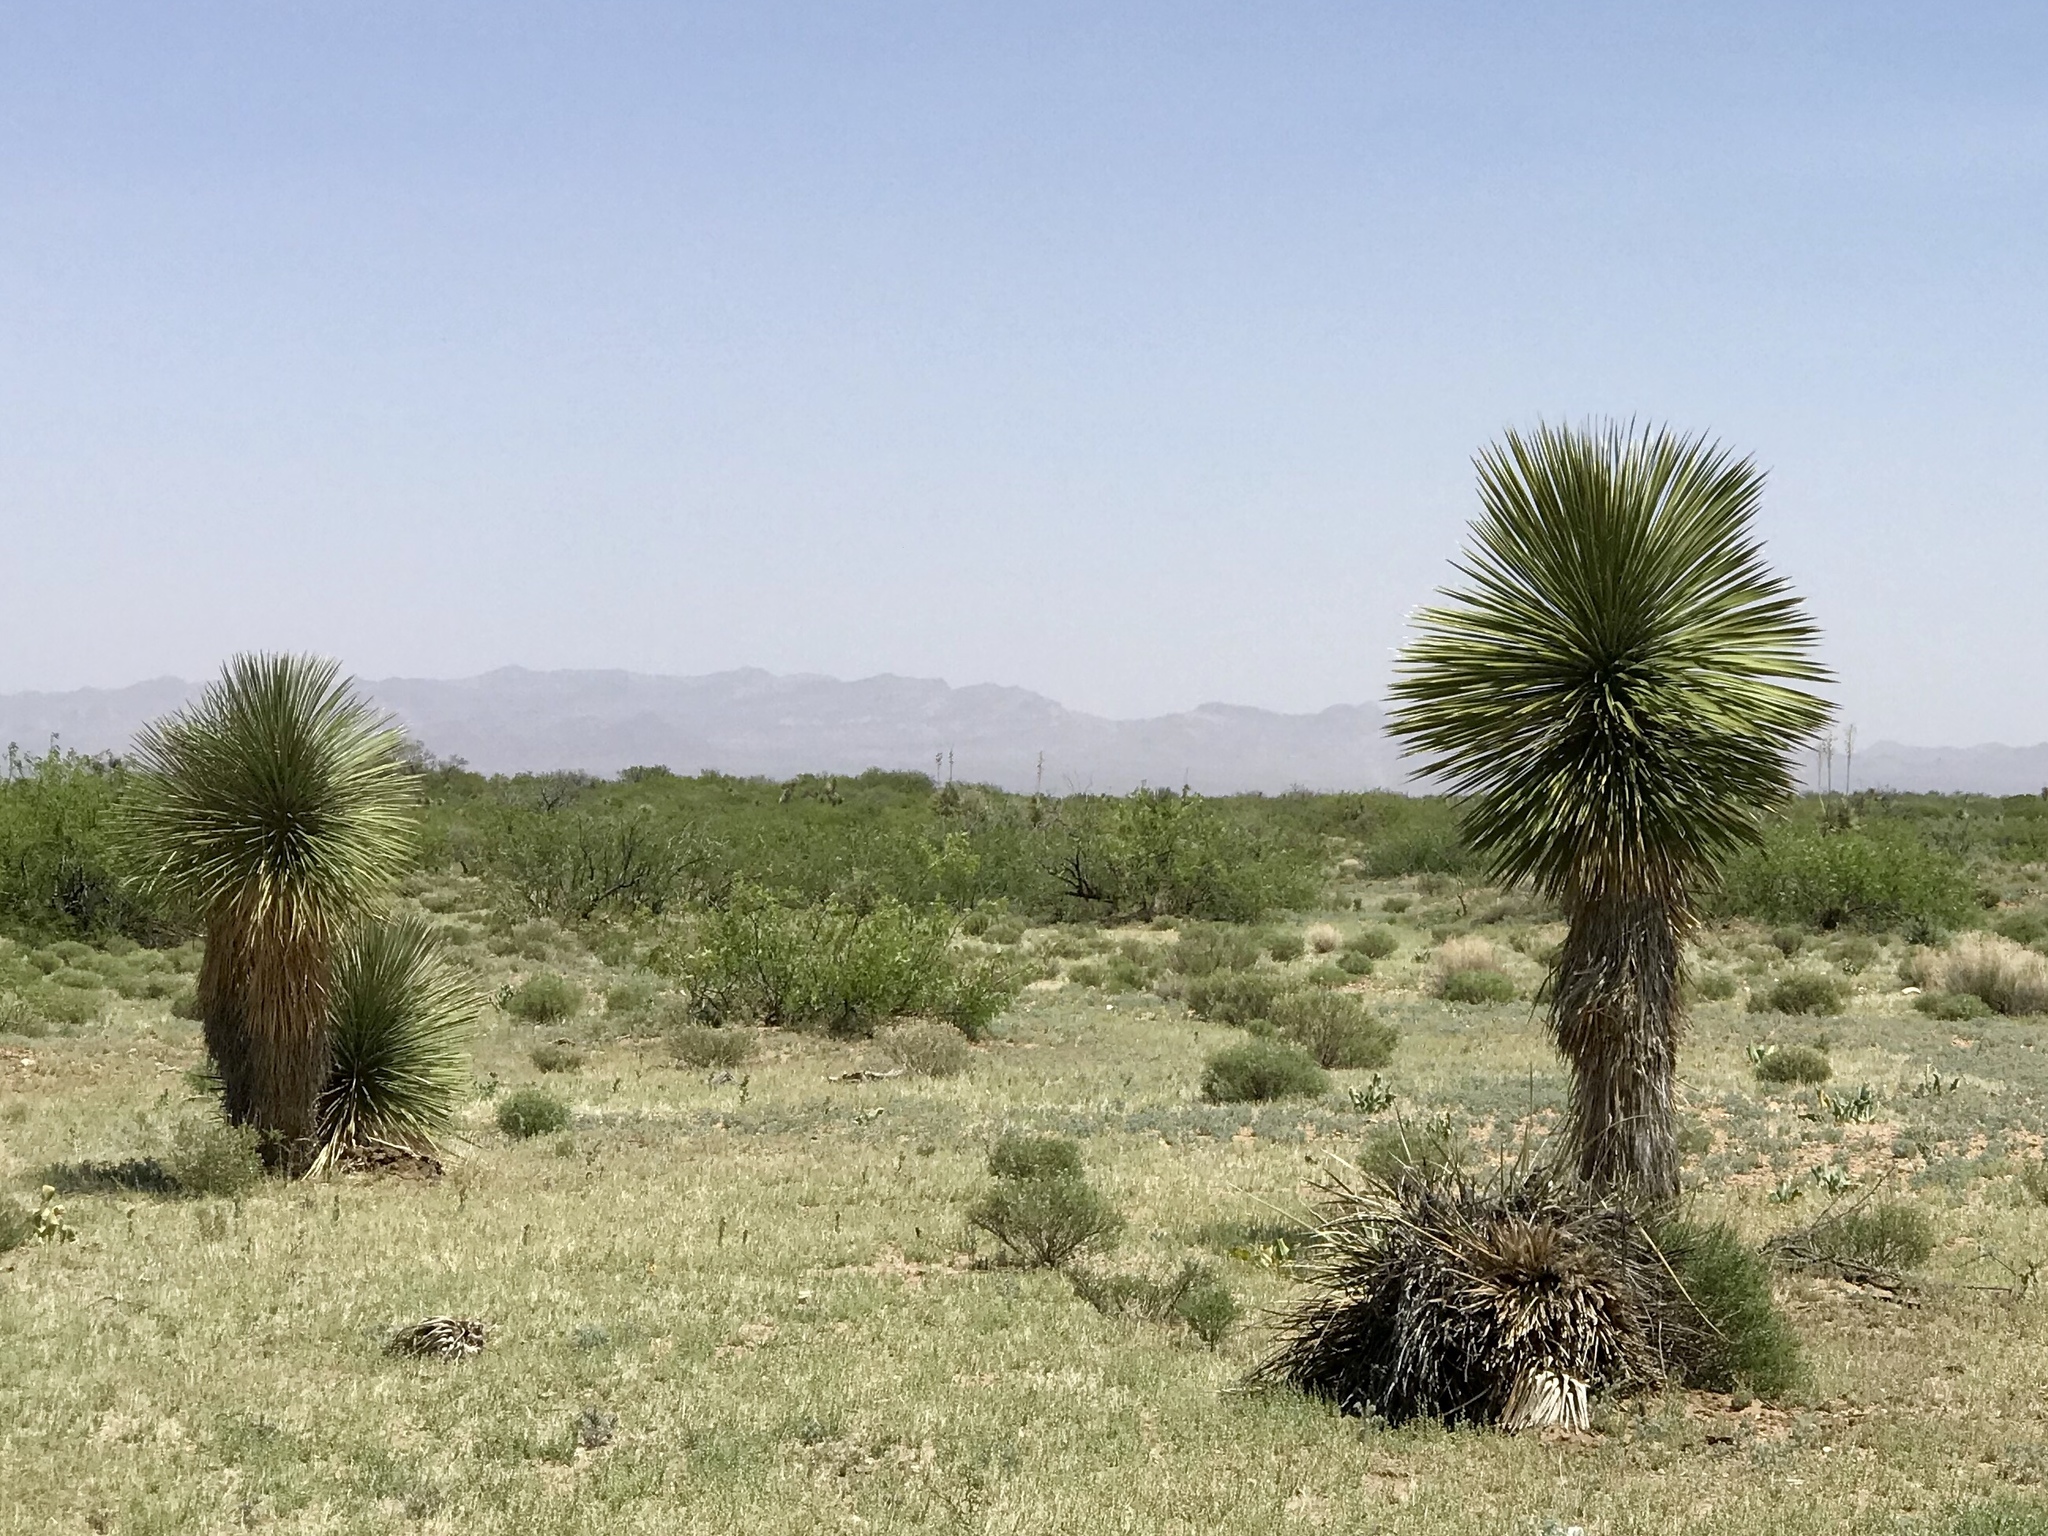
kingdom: Plantae
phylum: Tracheophyta
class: Liliopsida
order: Asparagales
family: Asparagaceae
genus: Yucca
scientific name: Yucca elata
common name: Palmella
